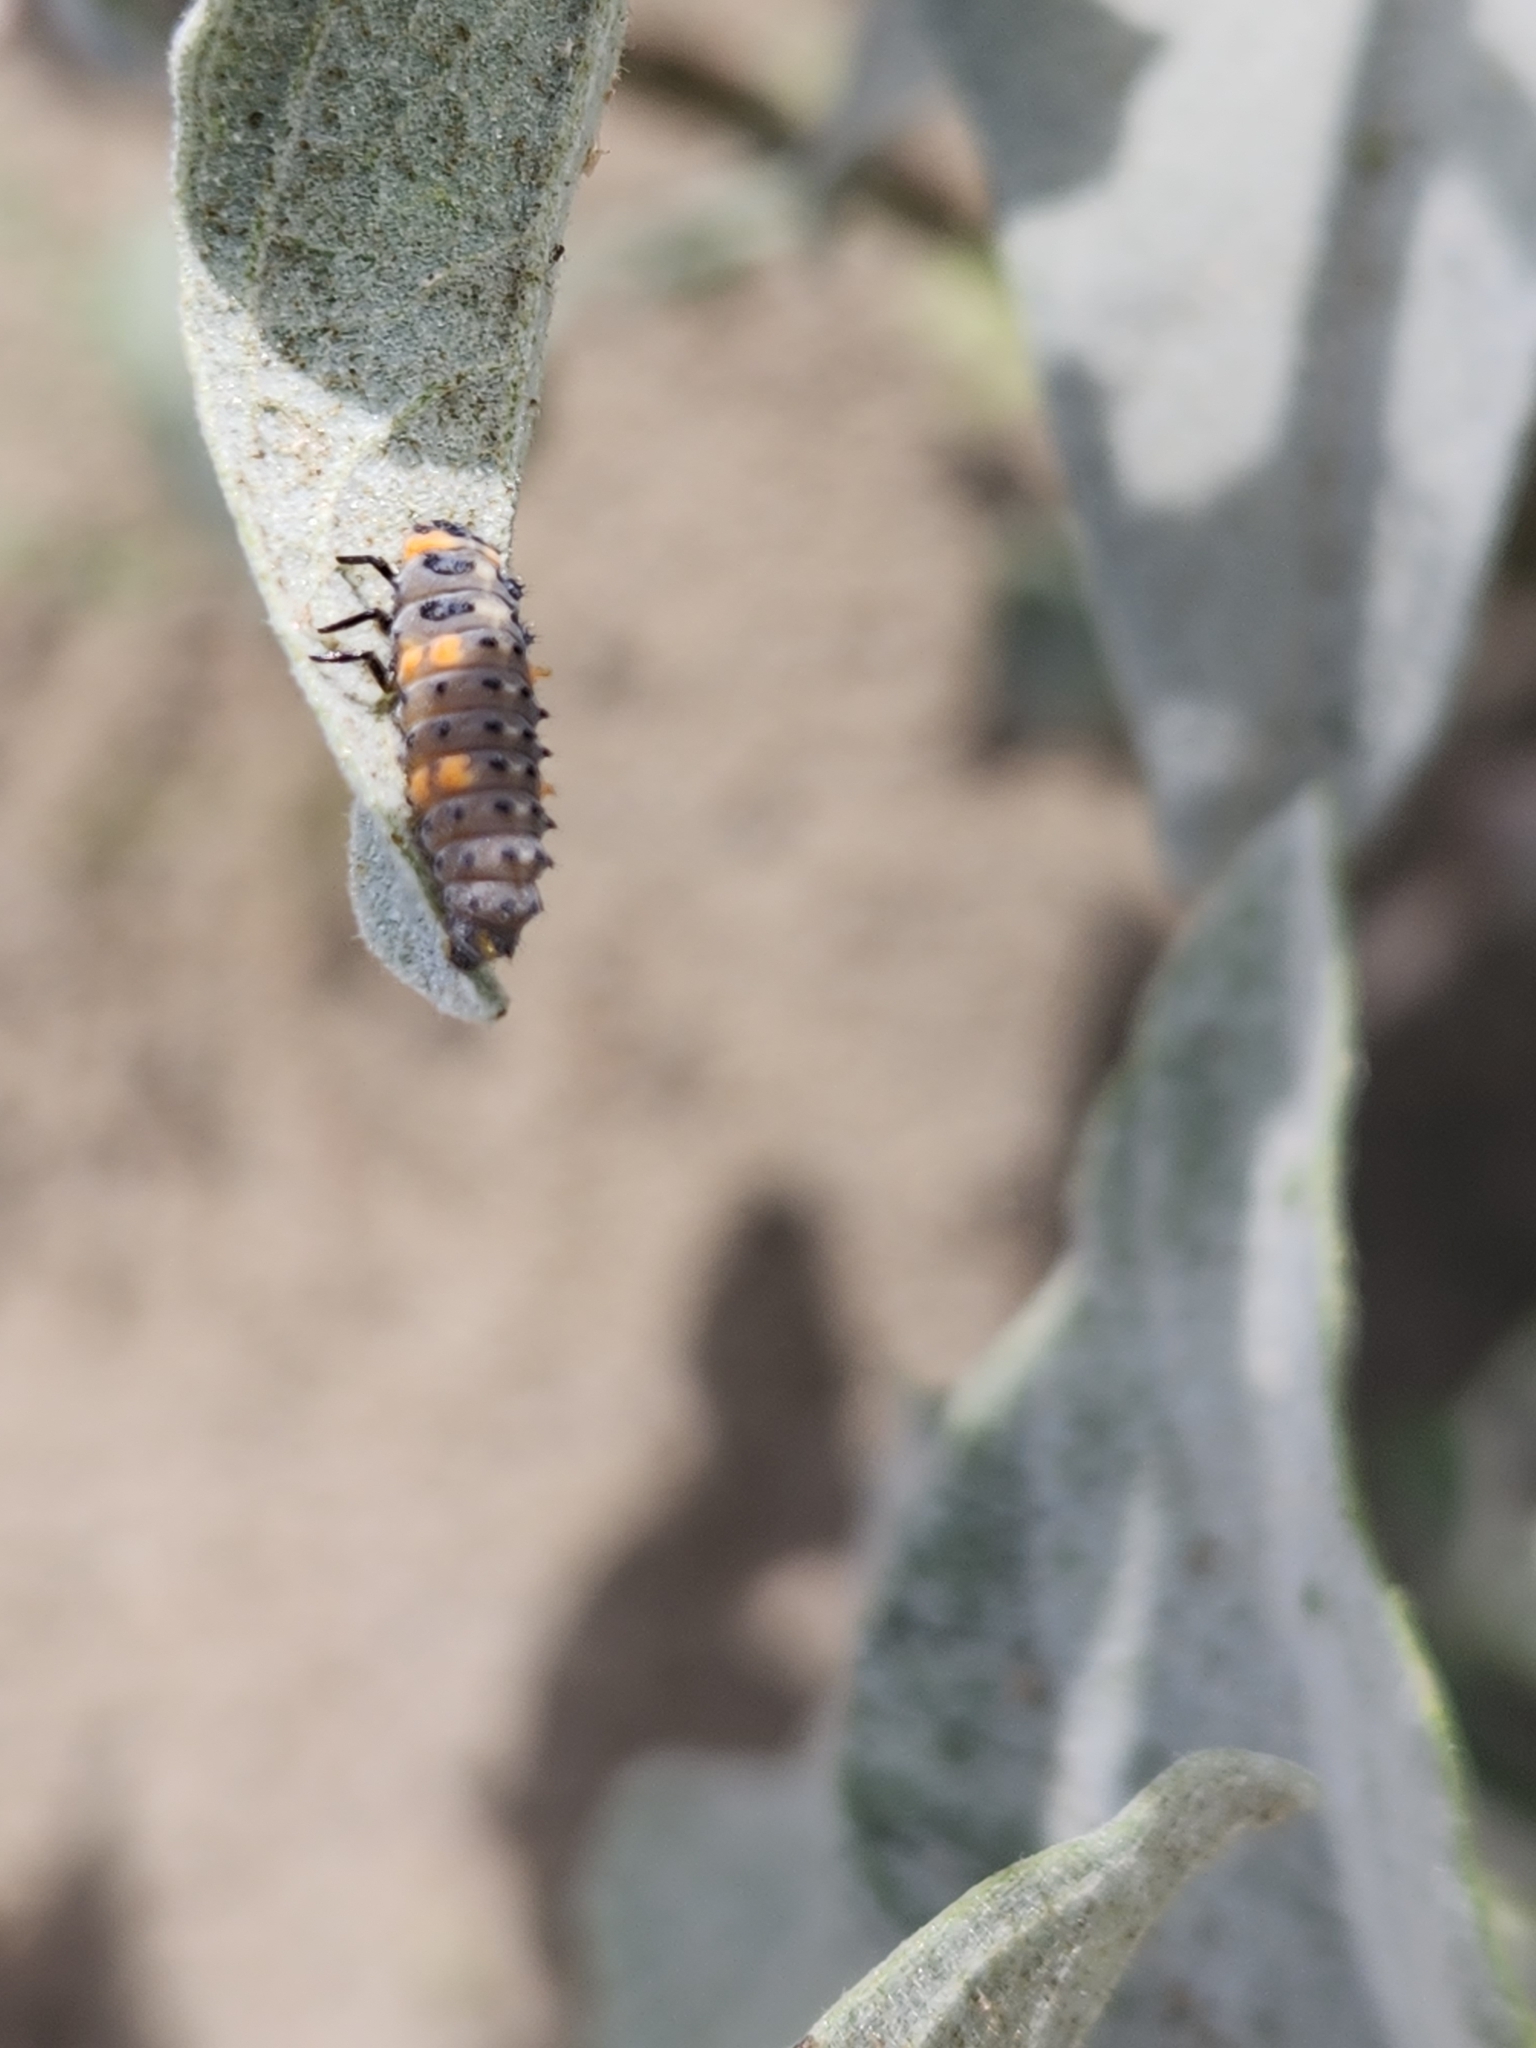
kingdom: Animalia
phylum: Arthropoda
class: Insecta
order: Coleoptera
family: Coccinellidae
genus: Coccinella
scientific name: Coccinella septempunctata
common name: Sevenspotted lady beetle
